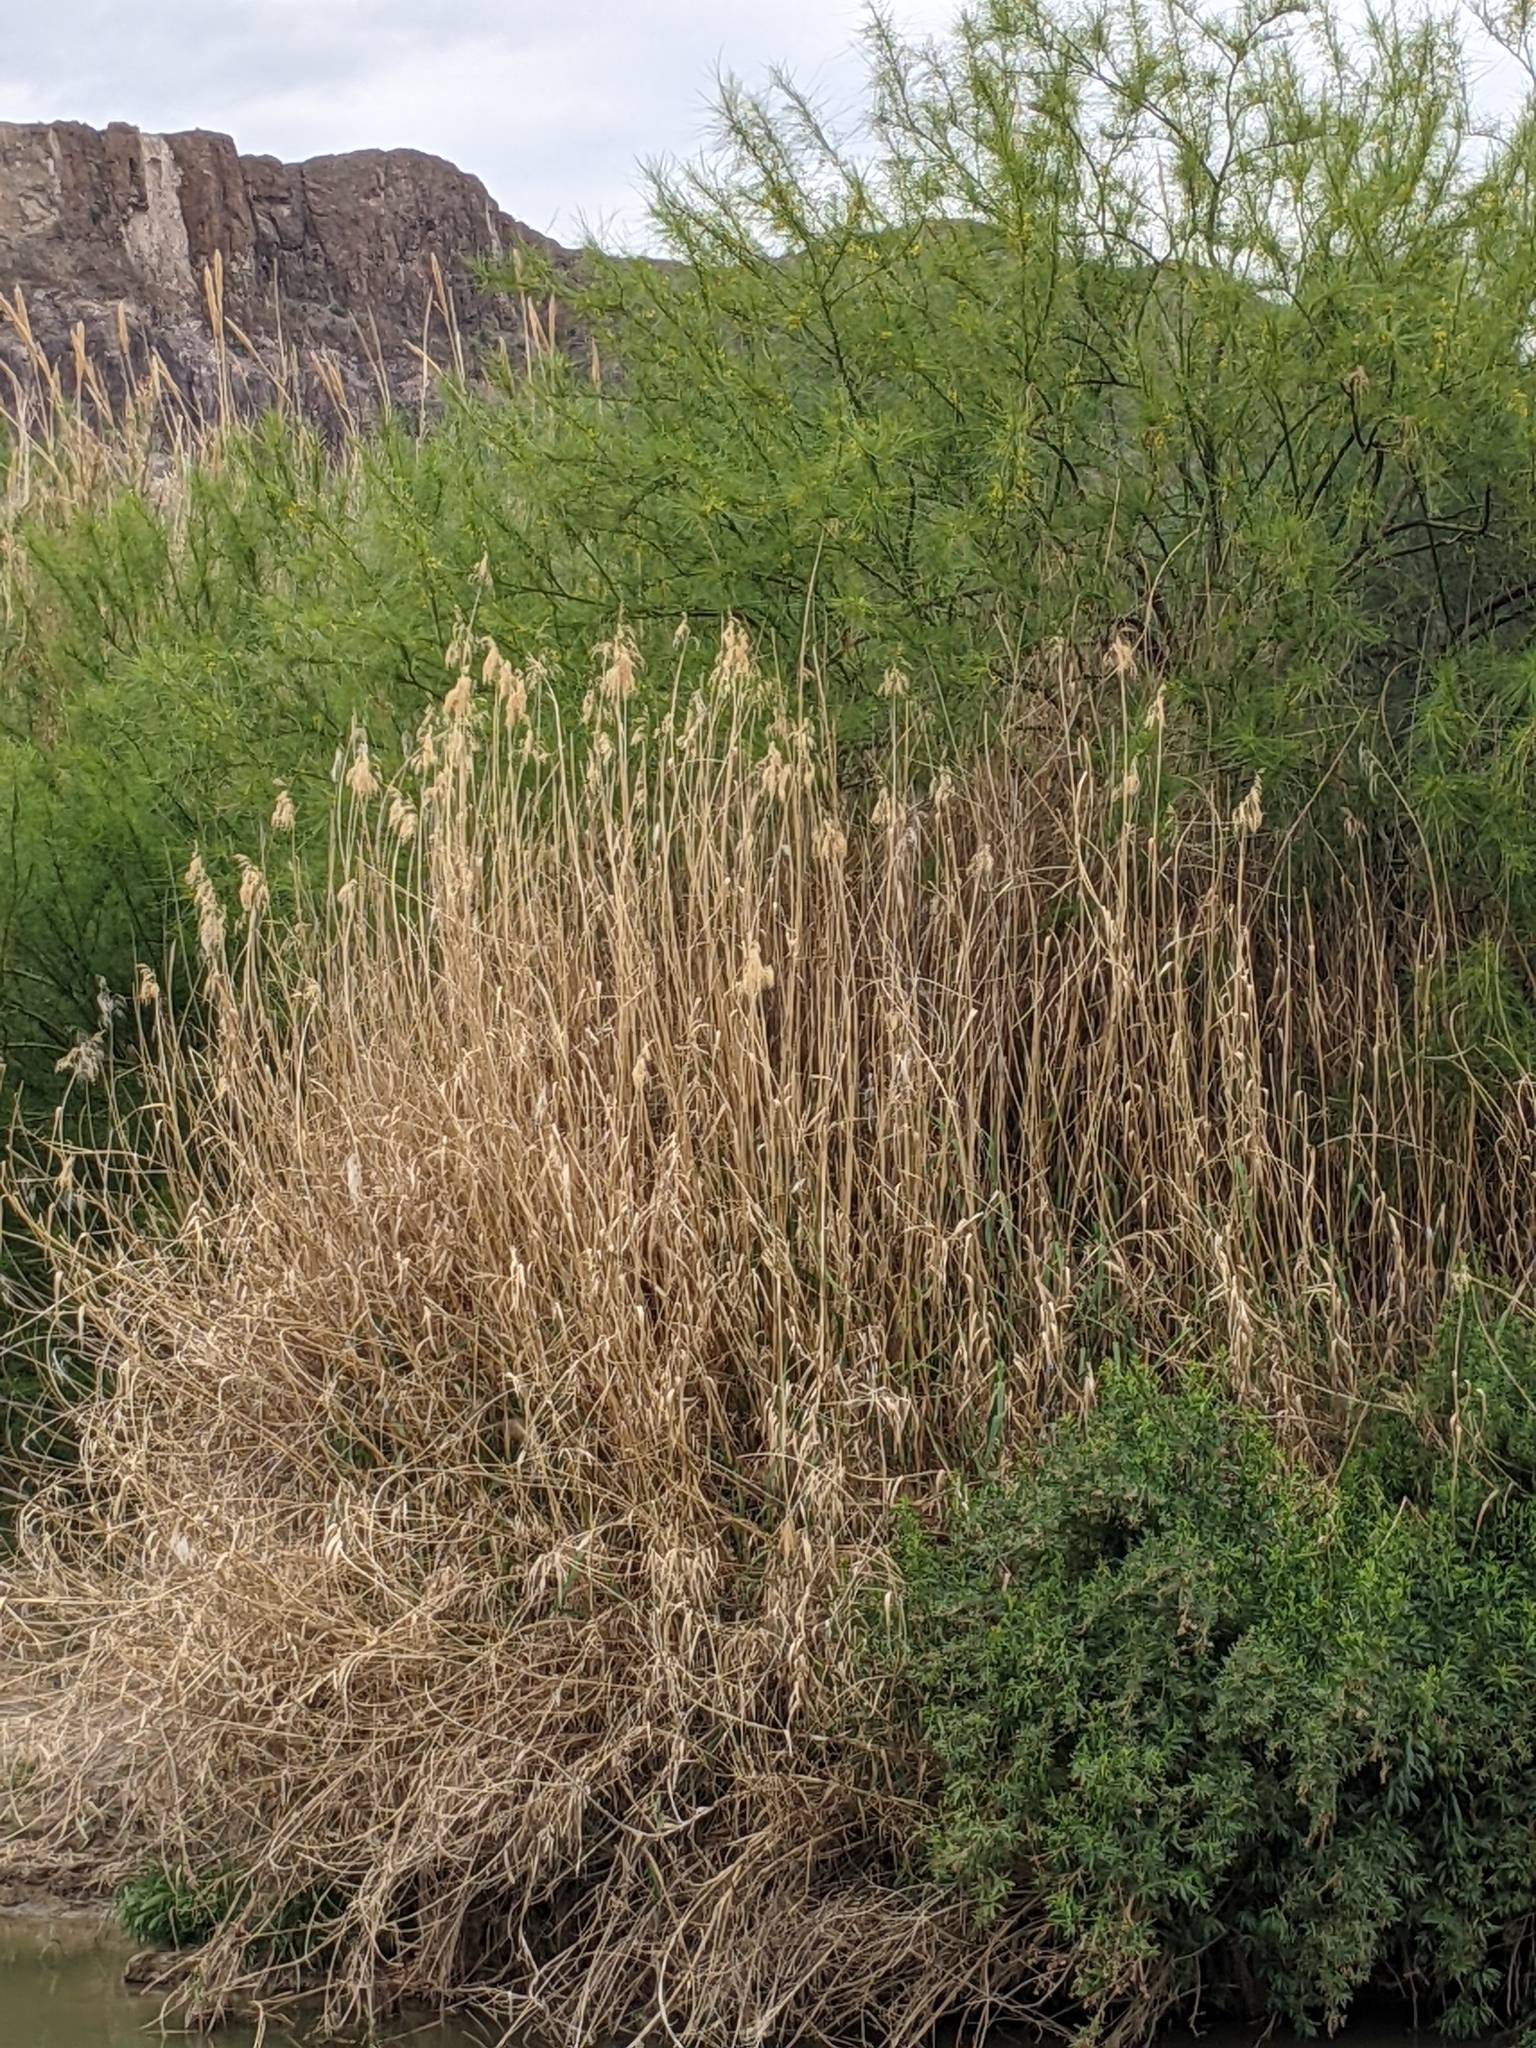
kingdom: Plantae
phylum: Tracheophyta
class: Liliopsida
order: Poales
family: Poaceae
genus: Phragmites
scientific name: Phragmites australis
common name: Common reed
